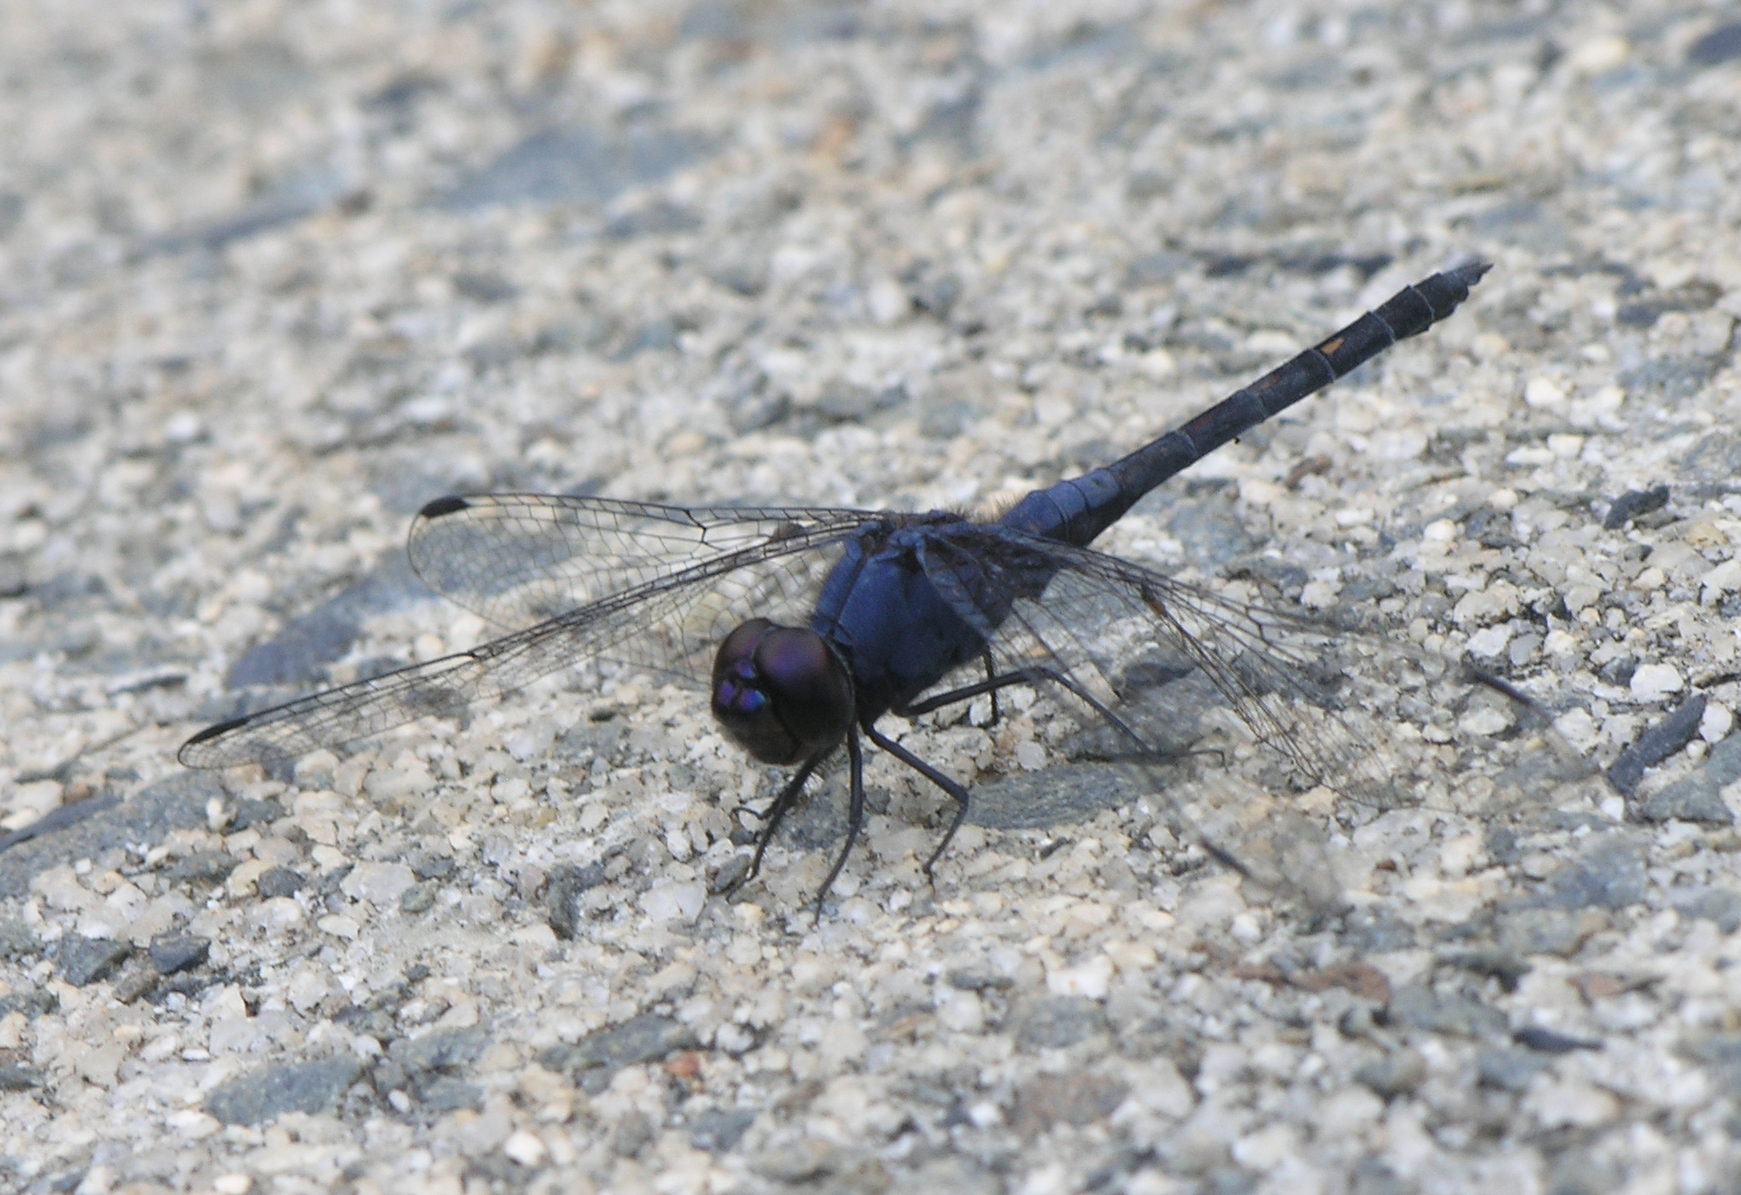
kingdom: Animalia
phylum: Arthropoda
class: Insecta
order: Odonata
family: Libellulidae
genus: Trithemis
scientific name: Trithemis festiva
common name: Indigo dropwing
